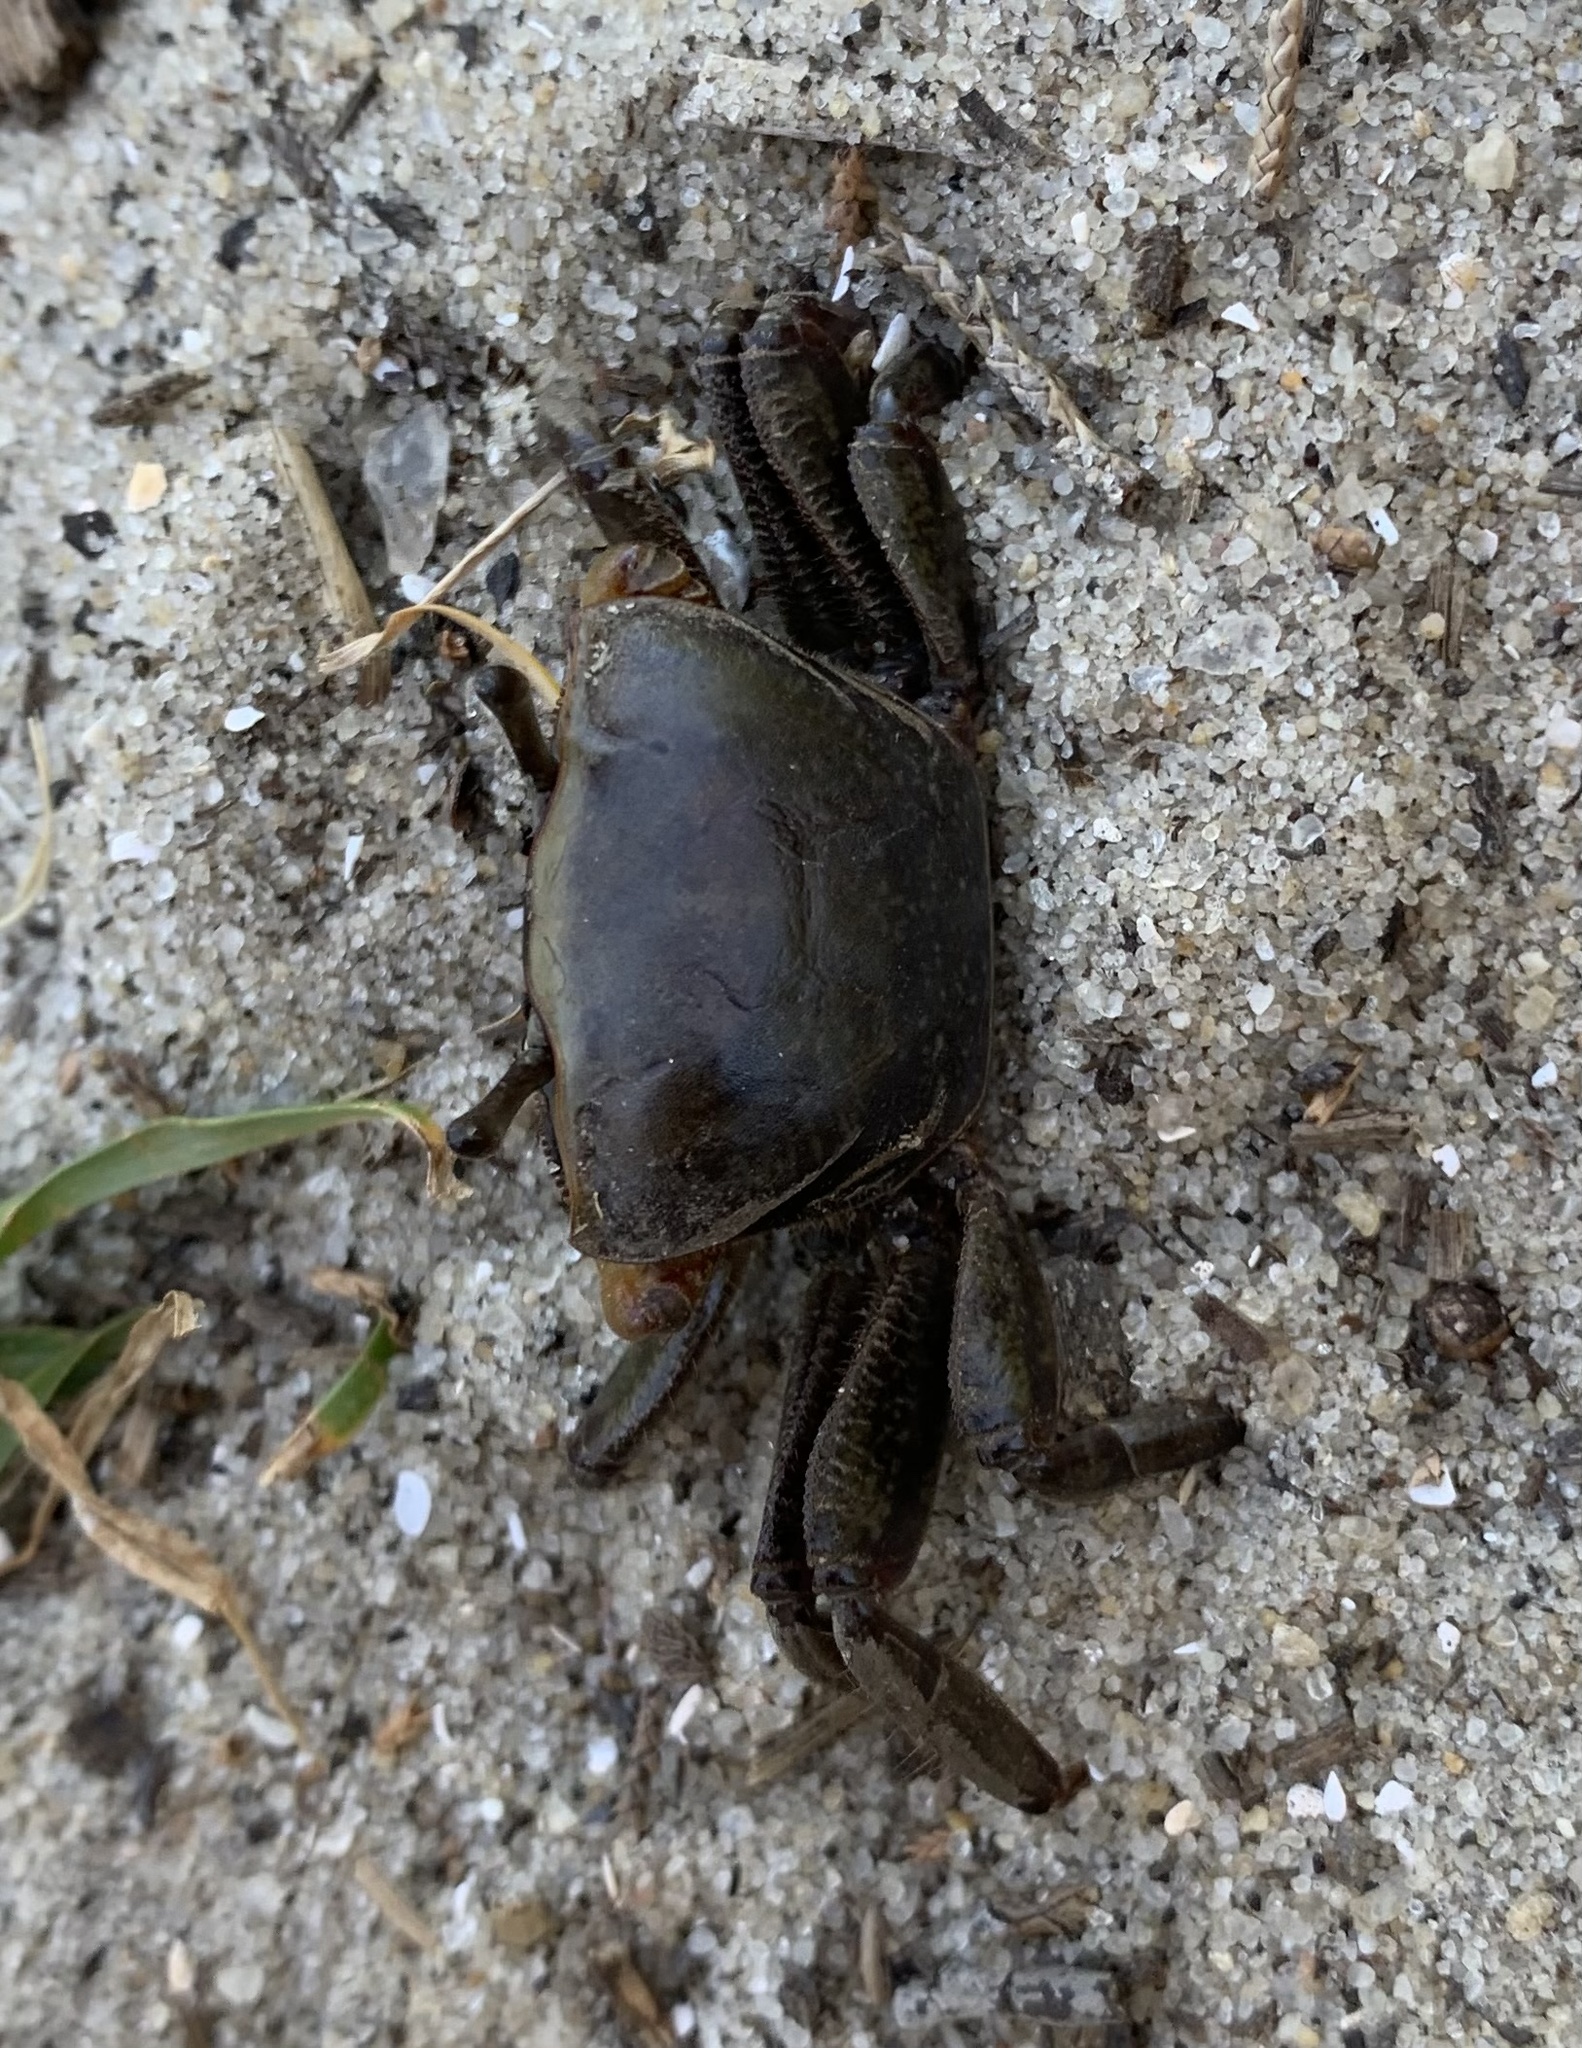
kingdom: Animalia
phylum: Arthropoda
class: Malacostraca
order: Decapoda
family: Ocypodidae
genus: Minuca
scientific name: Minuca minax
